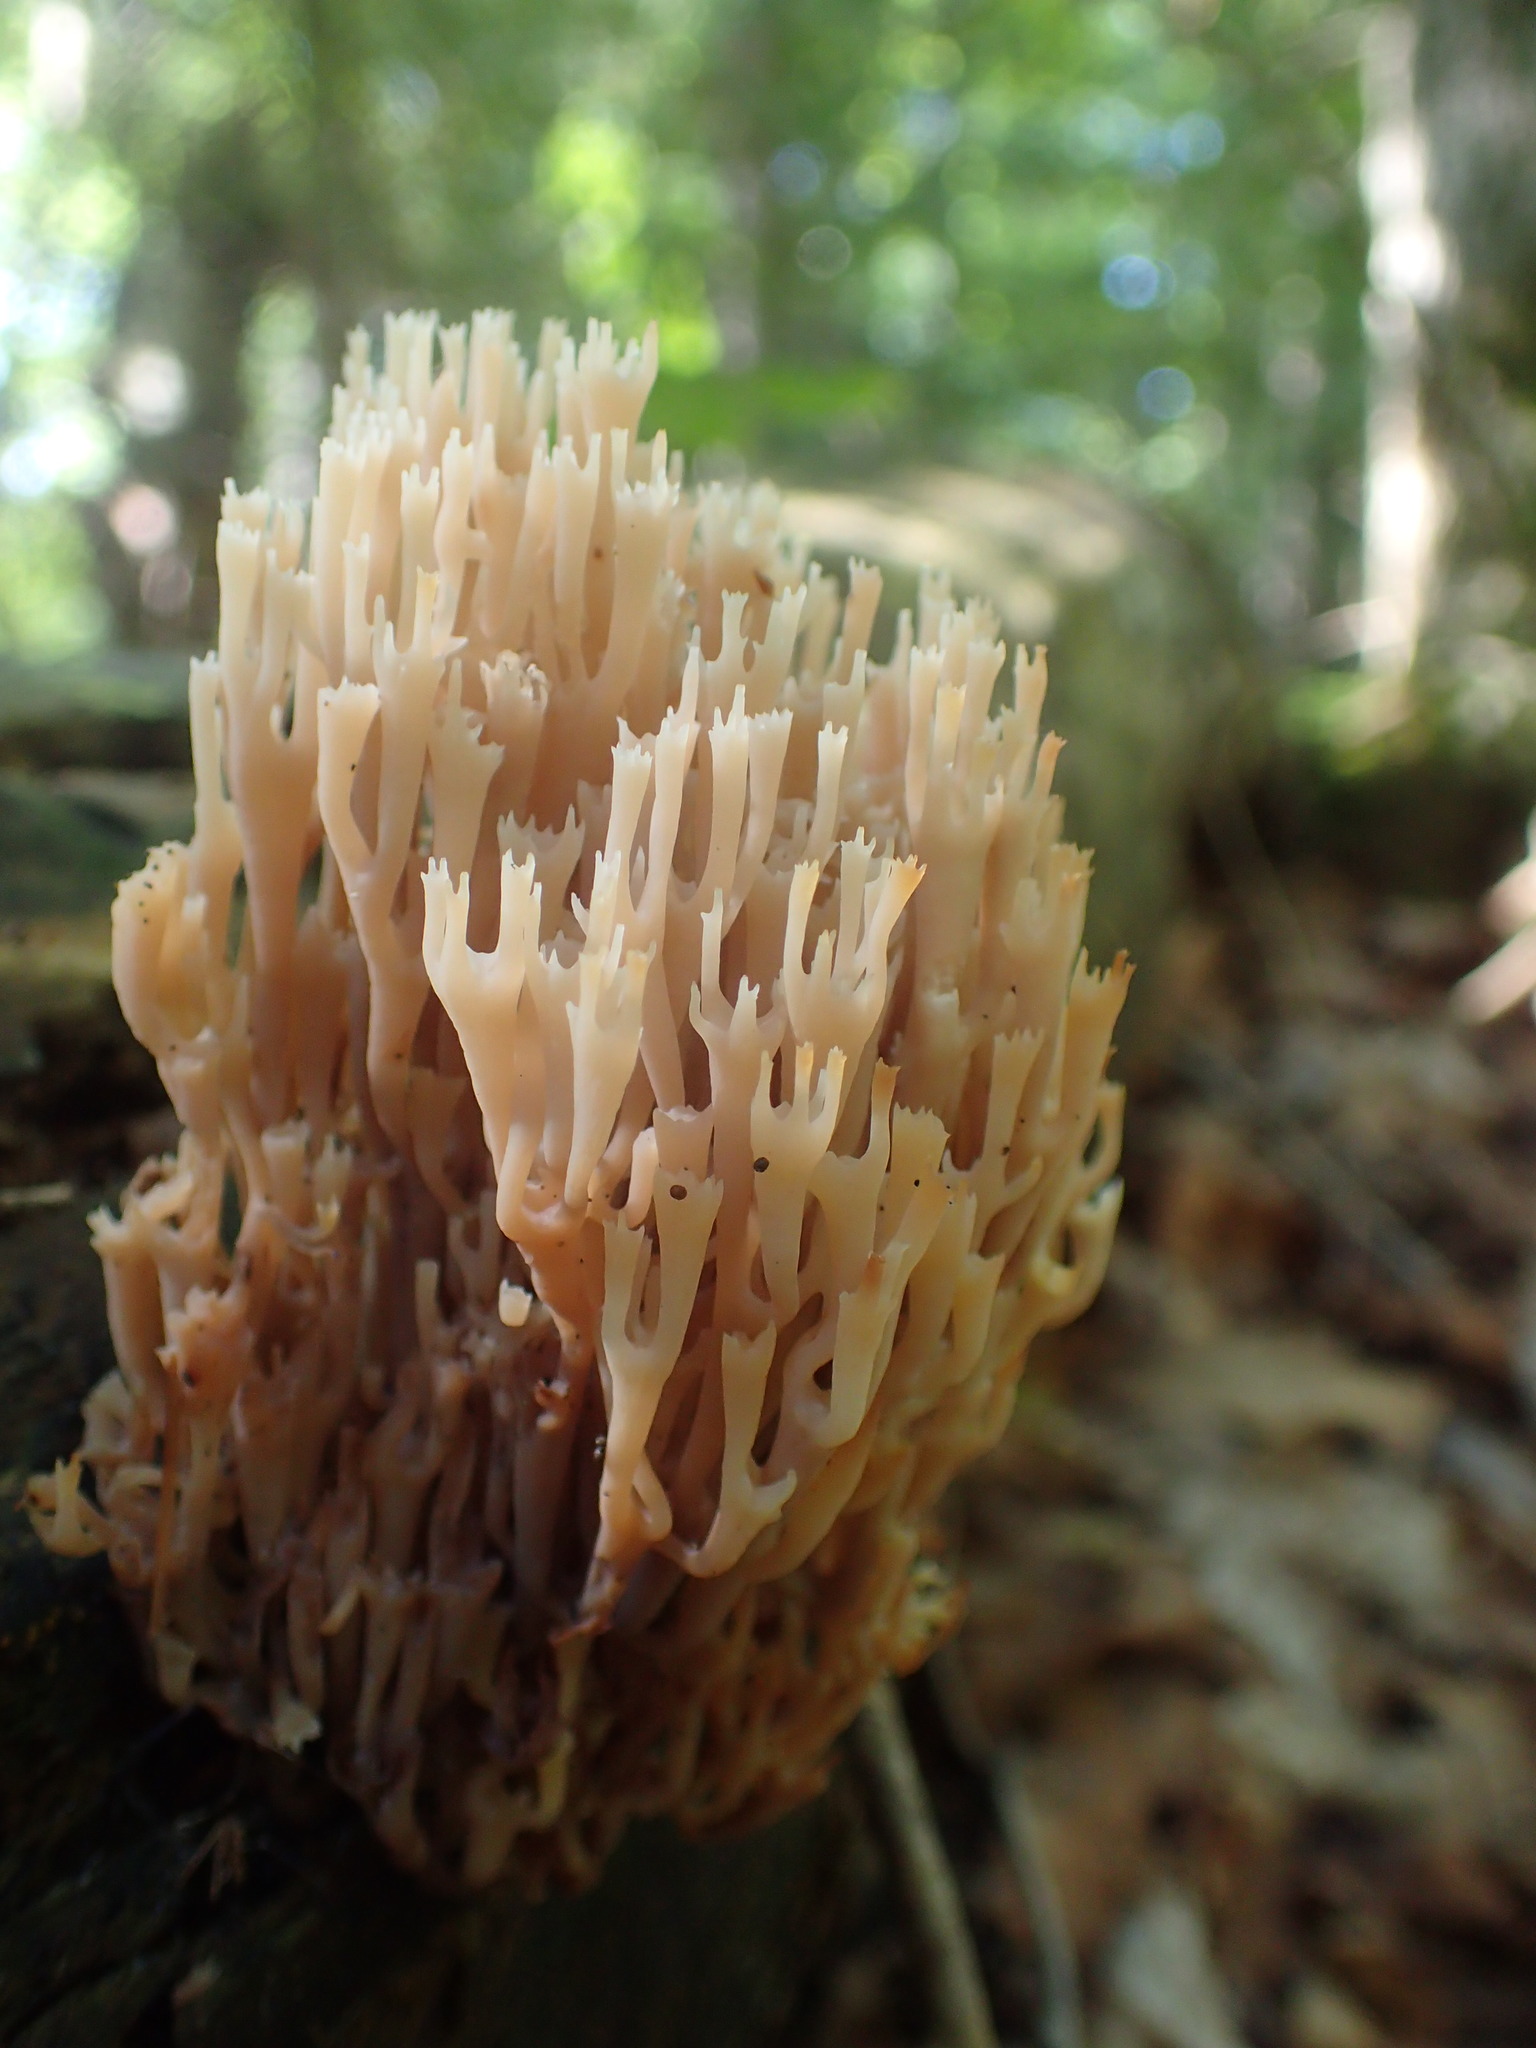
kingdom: Fungi
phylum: Basidiomycota
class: Agaricomycetes
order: Russulales
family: Auriscalpiaceae
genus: Artomyces
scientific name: Artomyces pyxidatus
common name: Crown-tipped coral fungus
